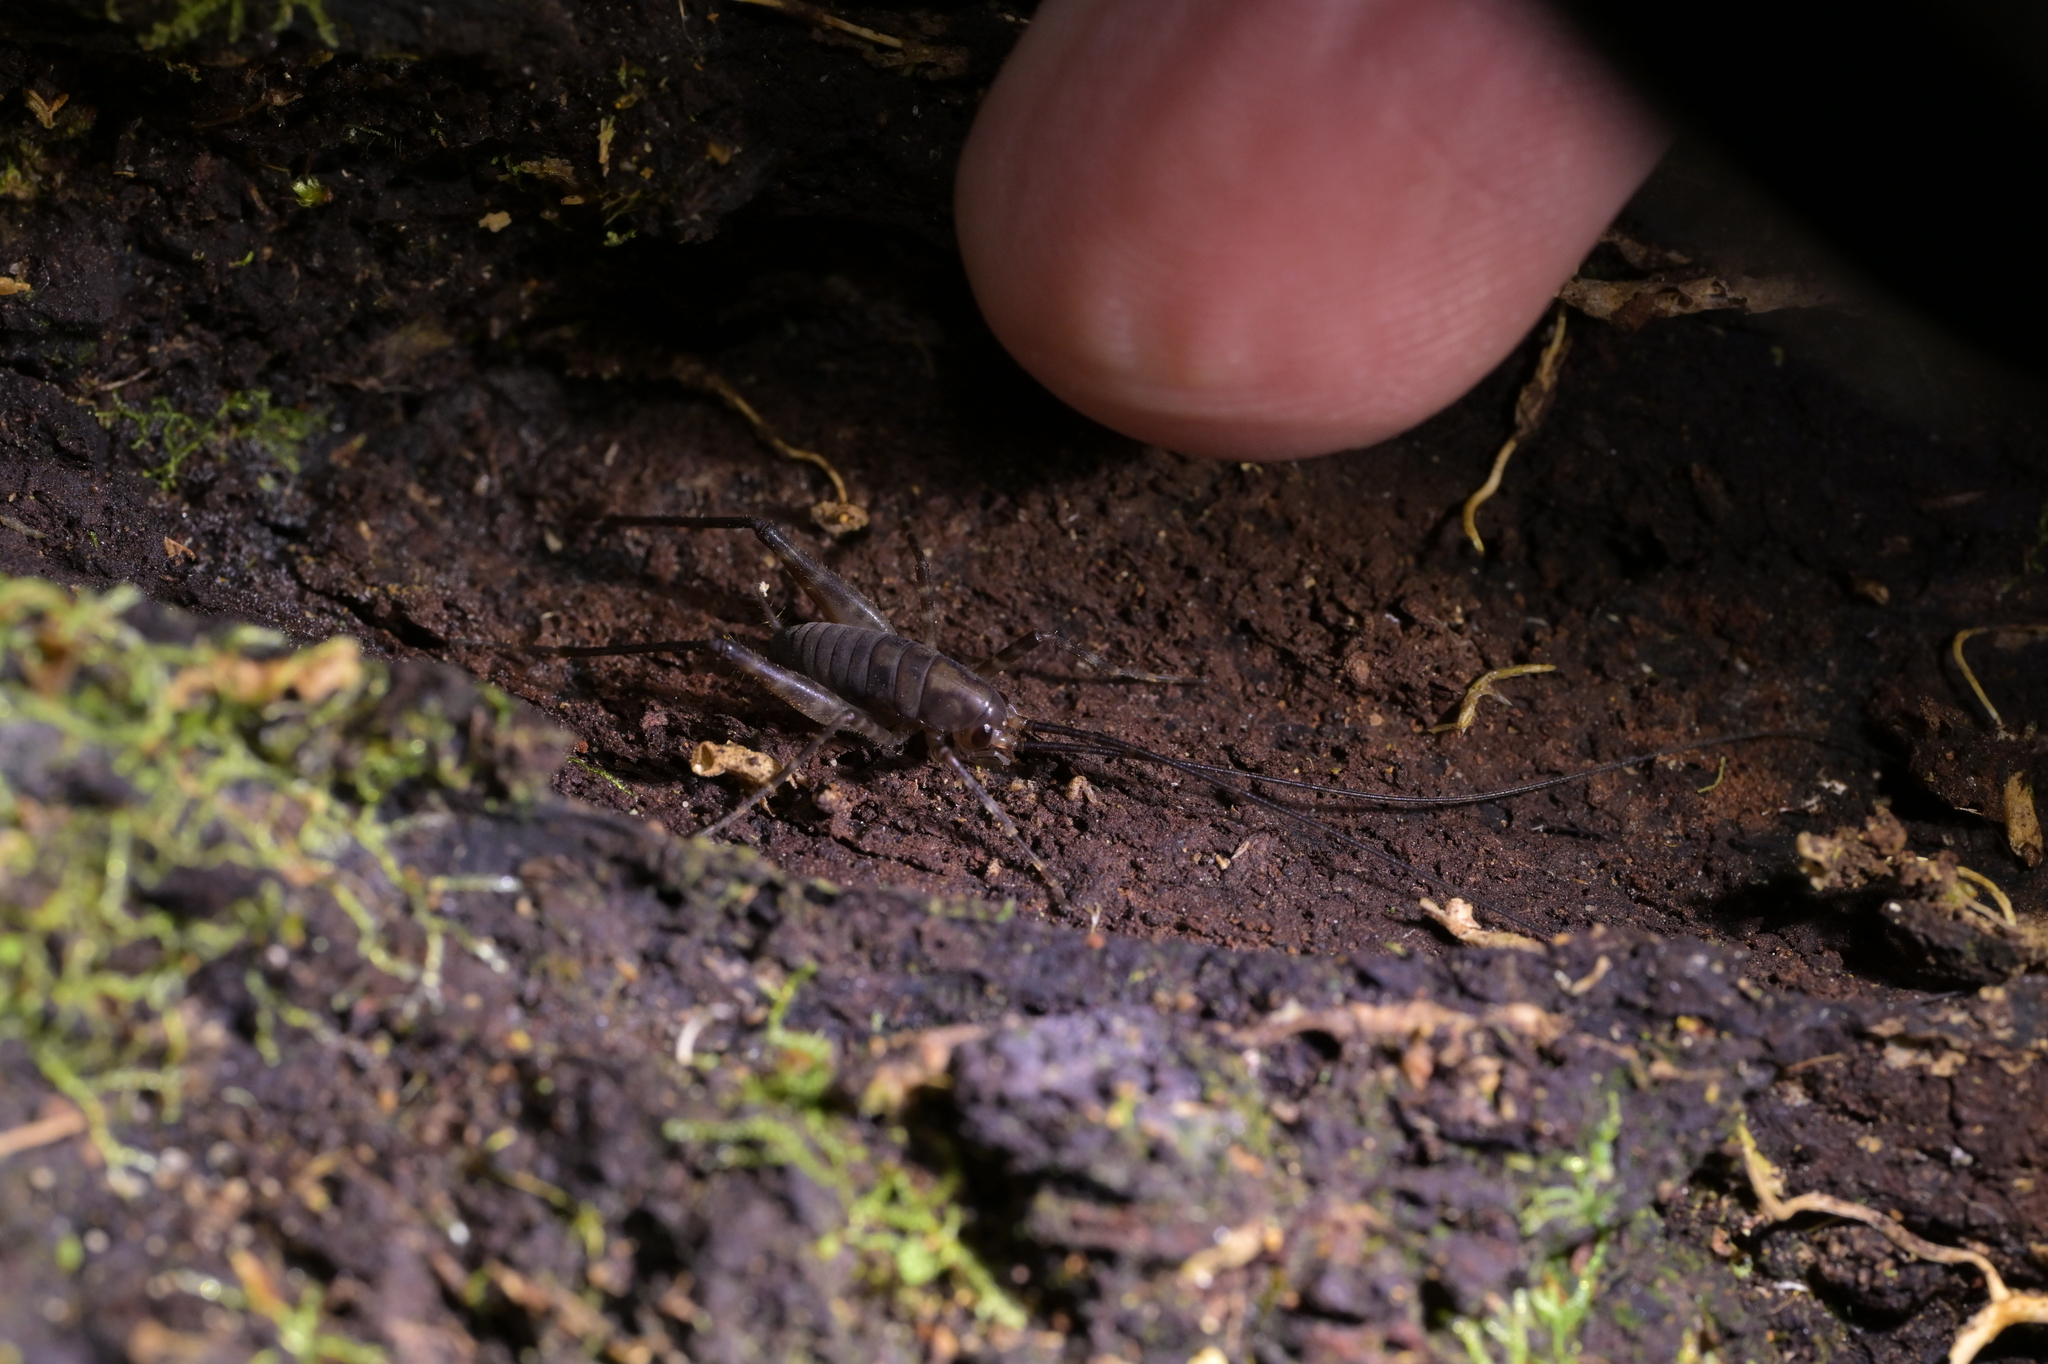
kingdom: Animalia
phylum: Arthropoda
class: Insecta
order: Orthoptera
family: Rhaphidophoridae
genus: Pachyrhamma
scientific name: Pachyrhamma longipes
